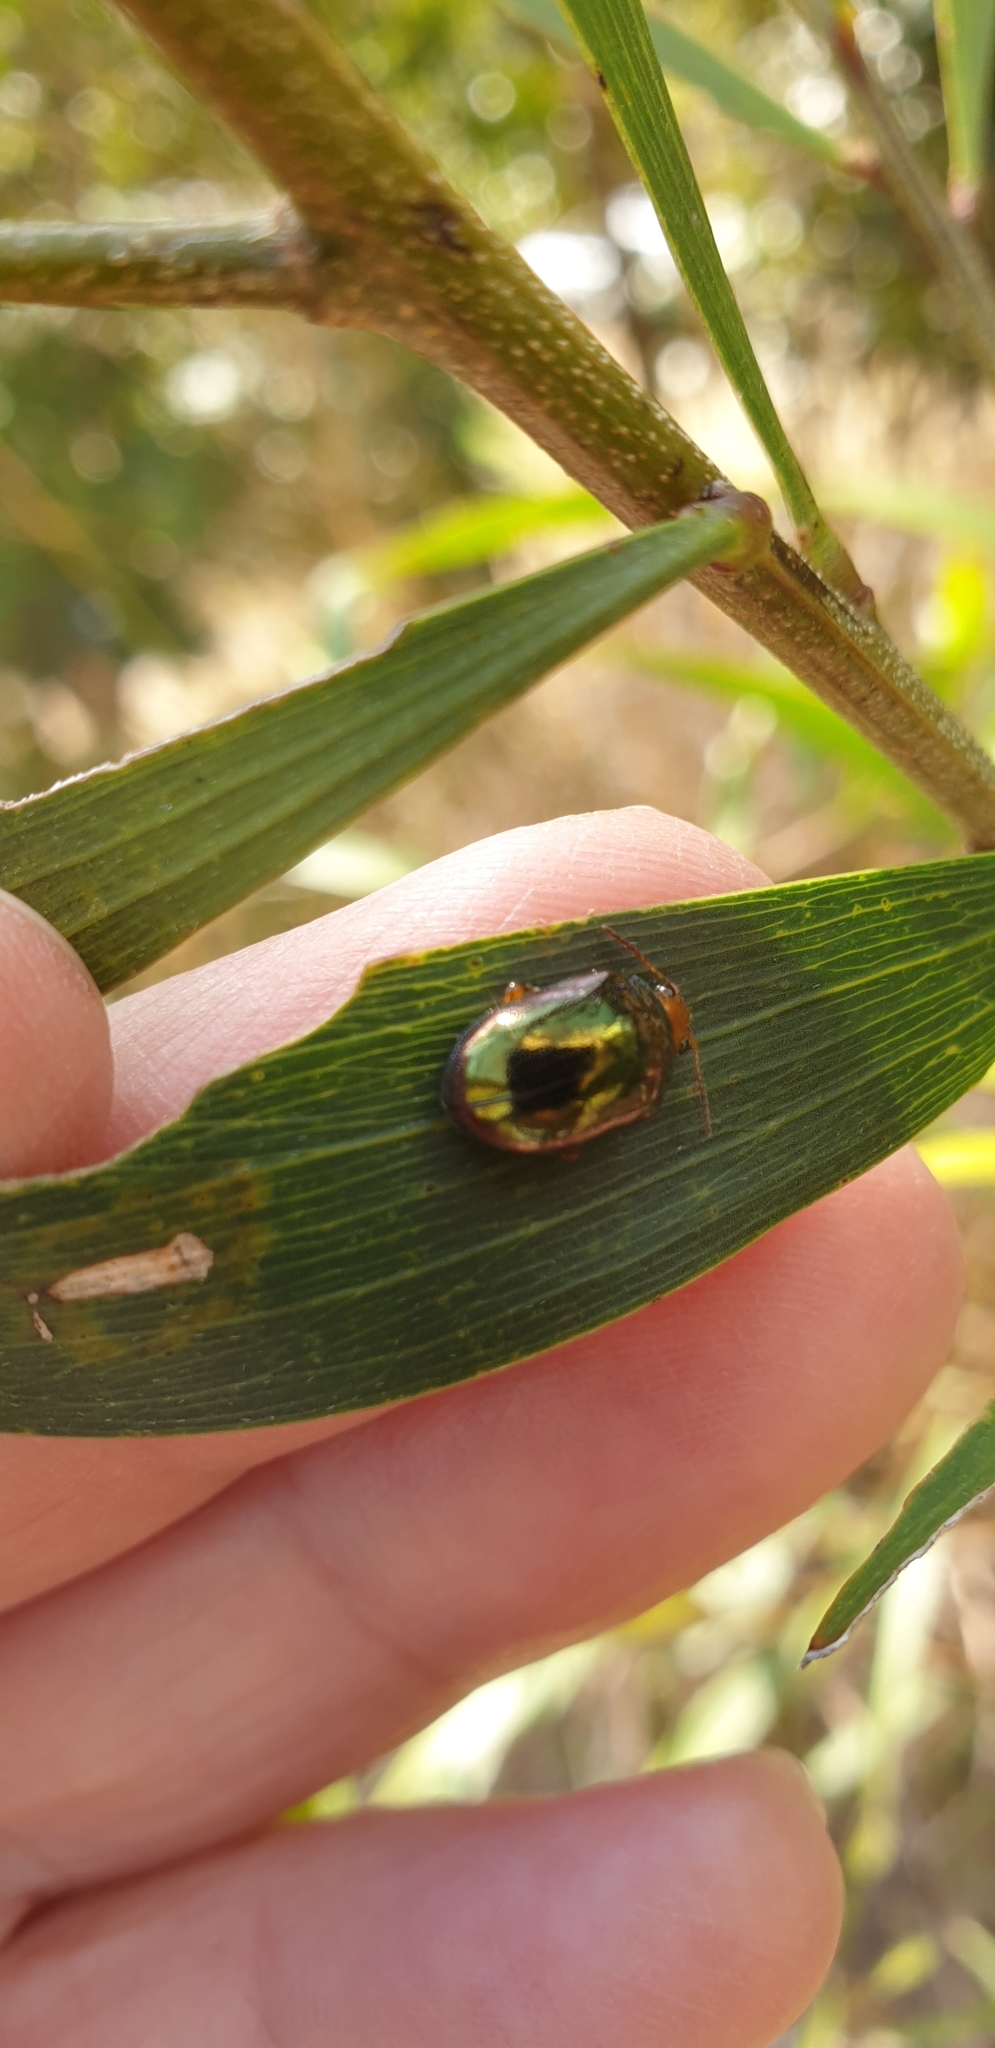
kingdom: Animalia
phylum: Arthropoda
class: Insecta
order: Coleoptera
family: Chrysomelidae
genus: Calomela
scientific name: Calomela
